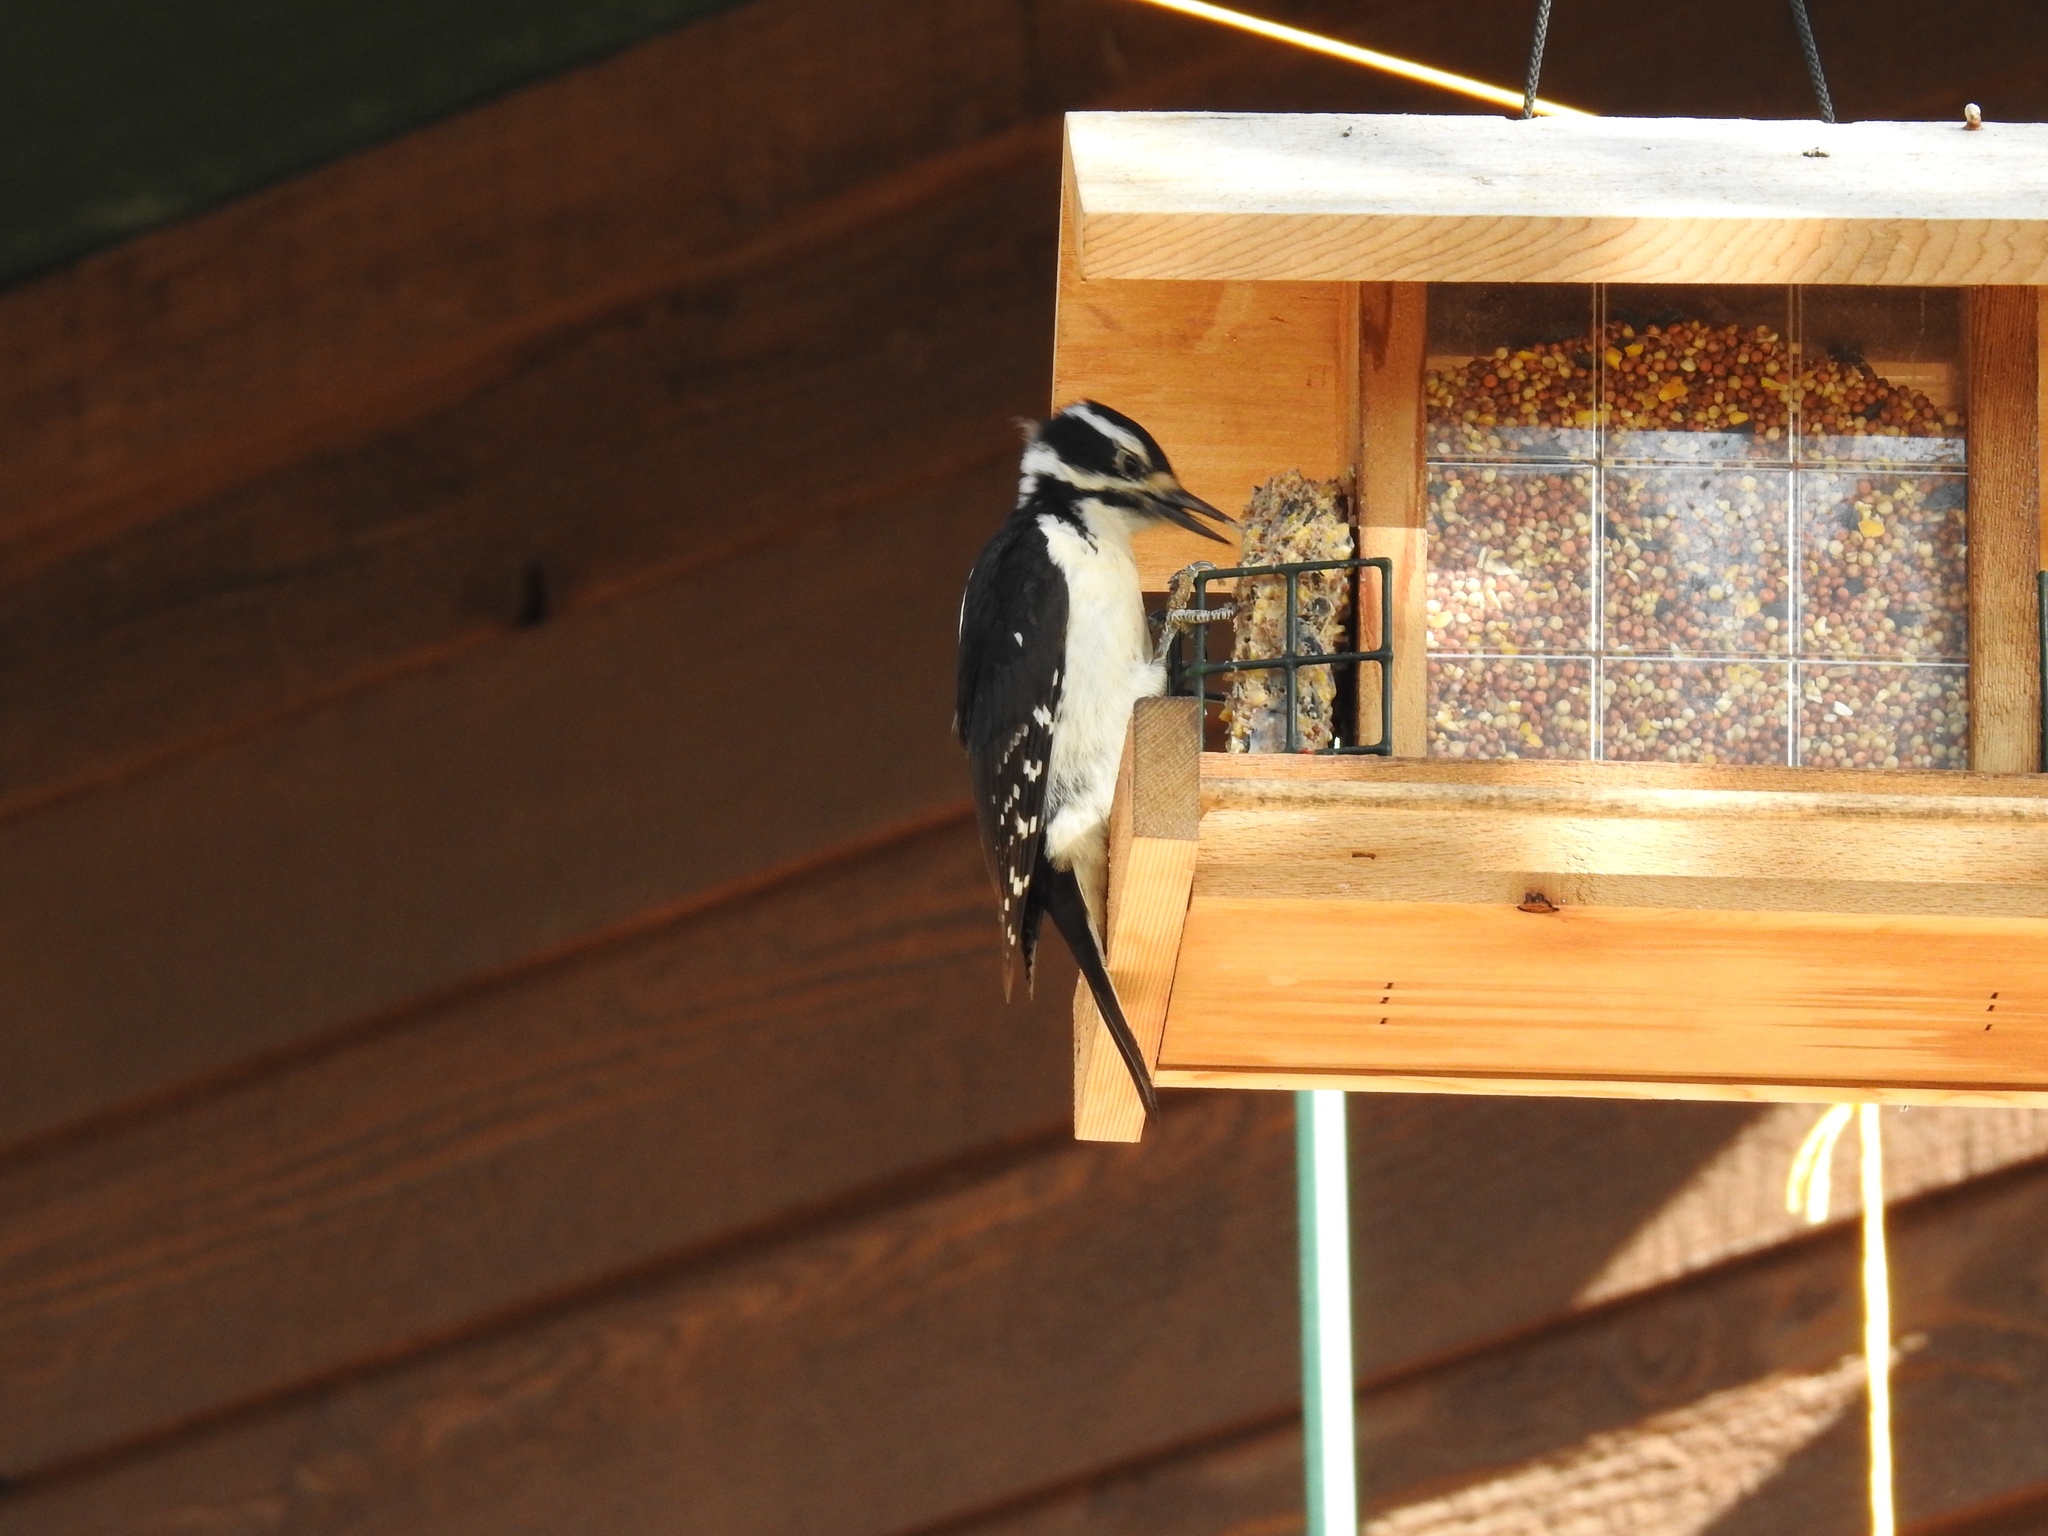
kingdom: Animalia
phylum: Chordata
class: Aves
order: Piciformes
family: Picidae
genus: Leuconotopicus
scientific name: Leuconotopicus villosus
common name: Hairy woodpecker
